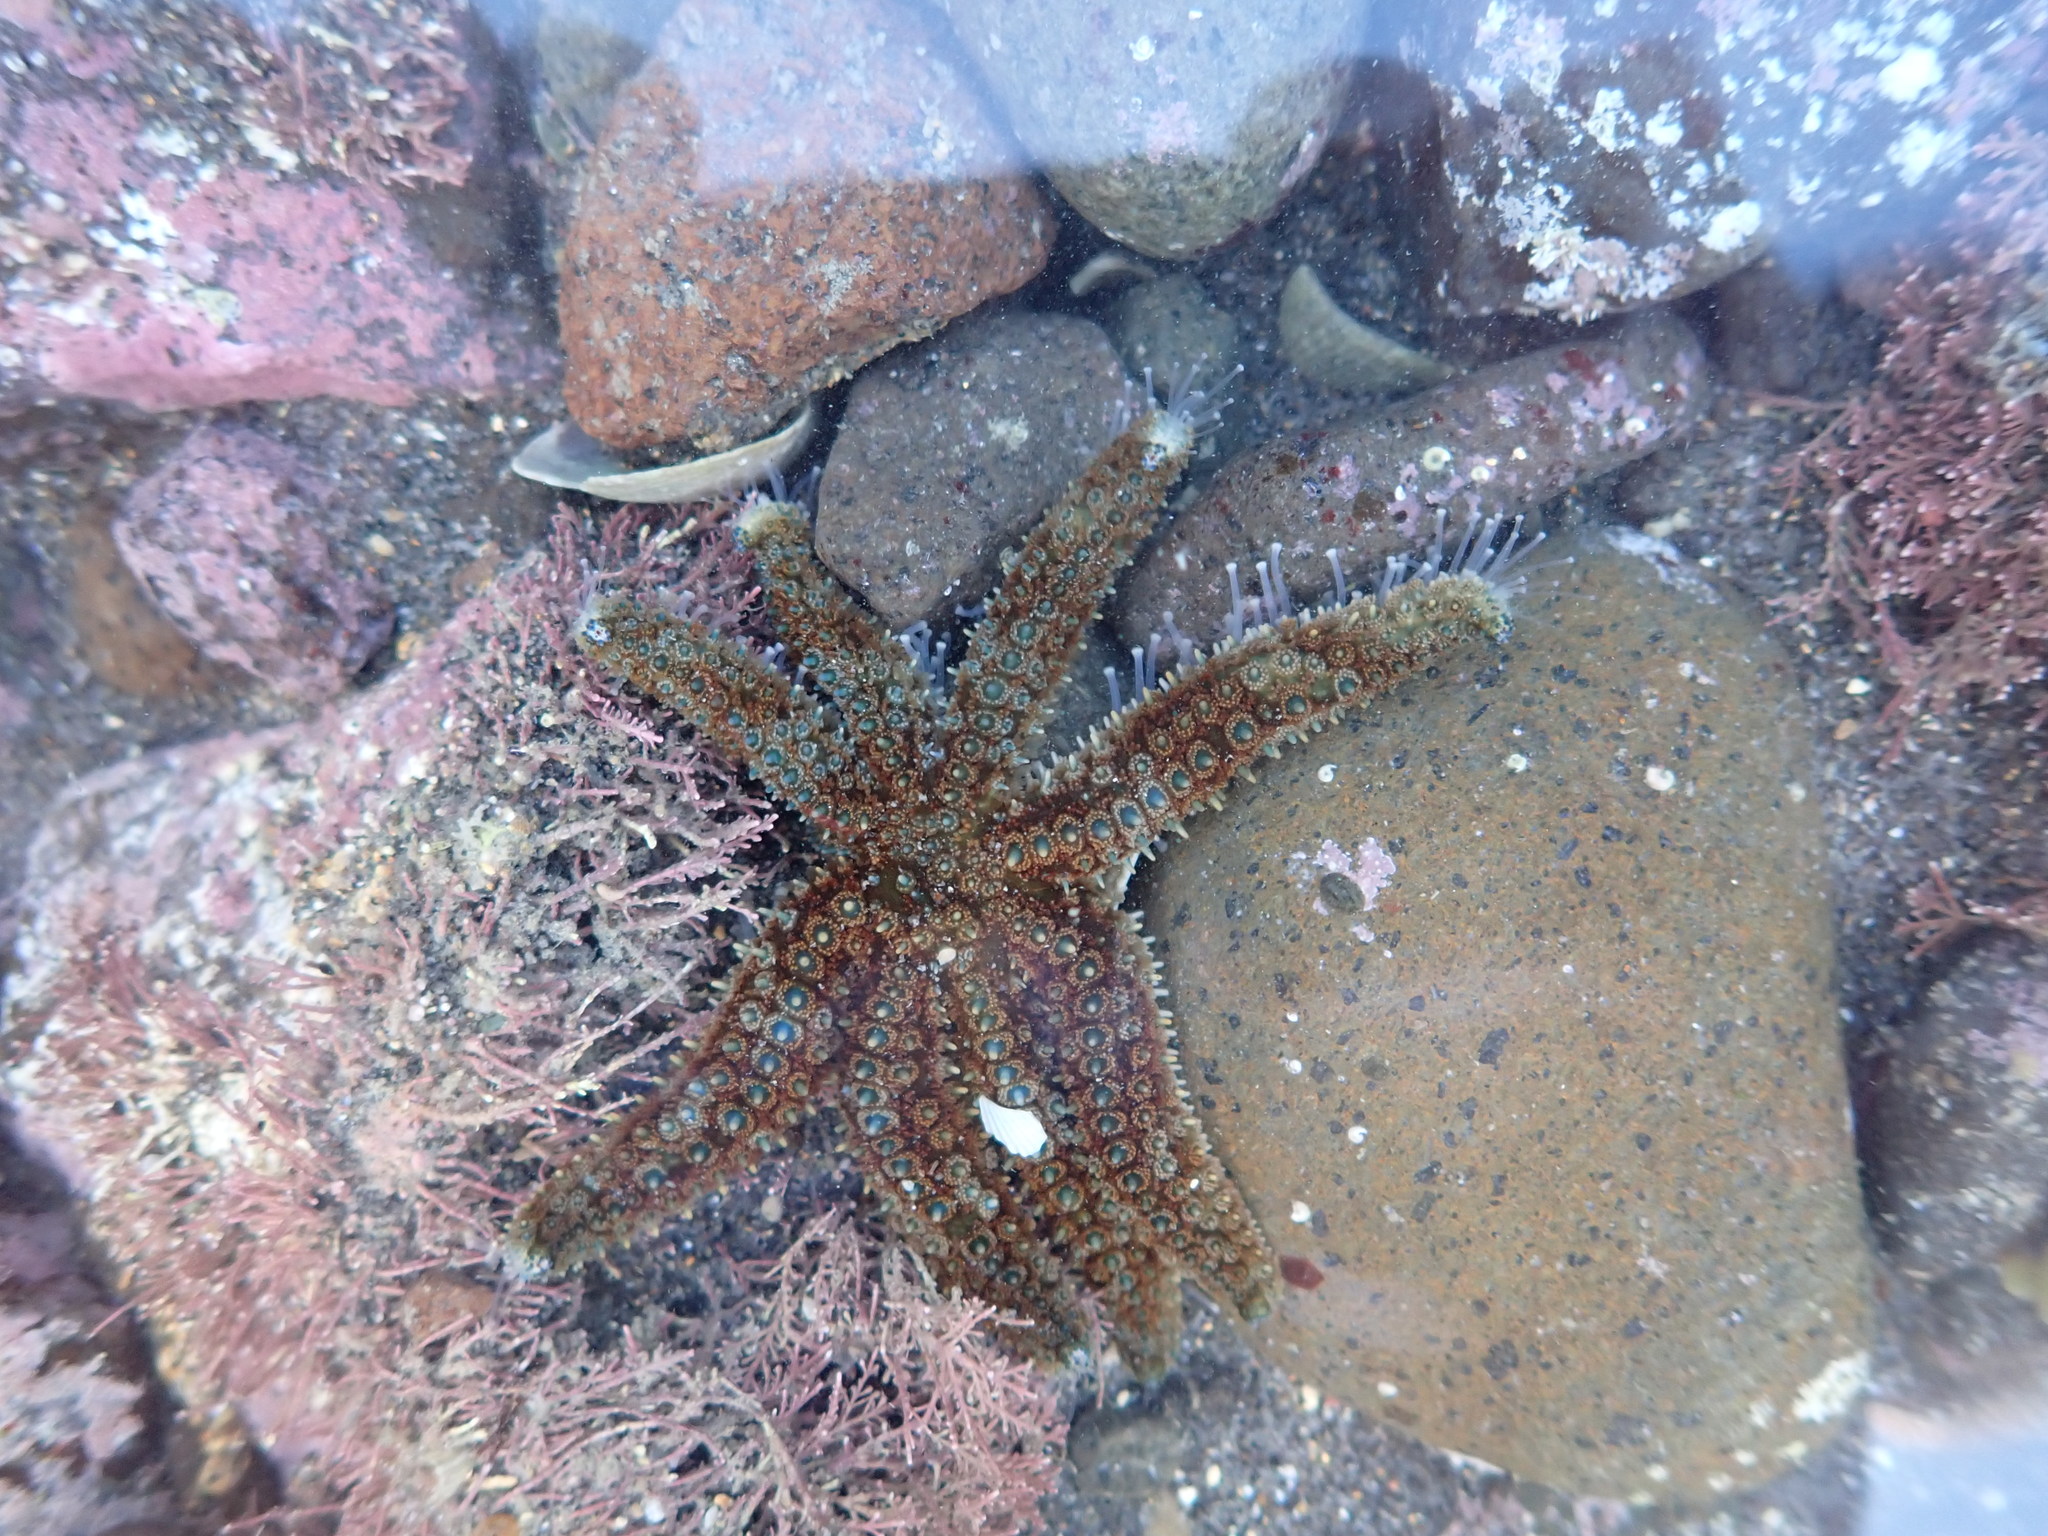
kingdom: Animalia
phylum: Echinodermata
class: Asteroidea
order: Forcipulatida
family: Asteriidae
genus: Coscinasterias
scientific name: Coscinasterias muricata
